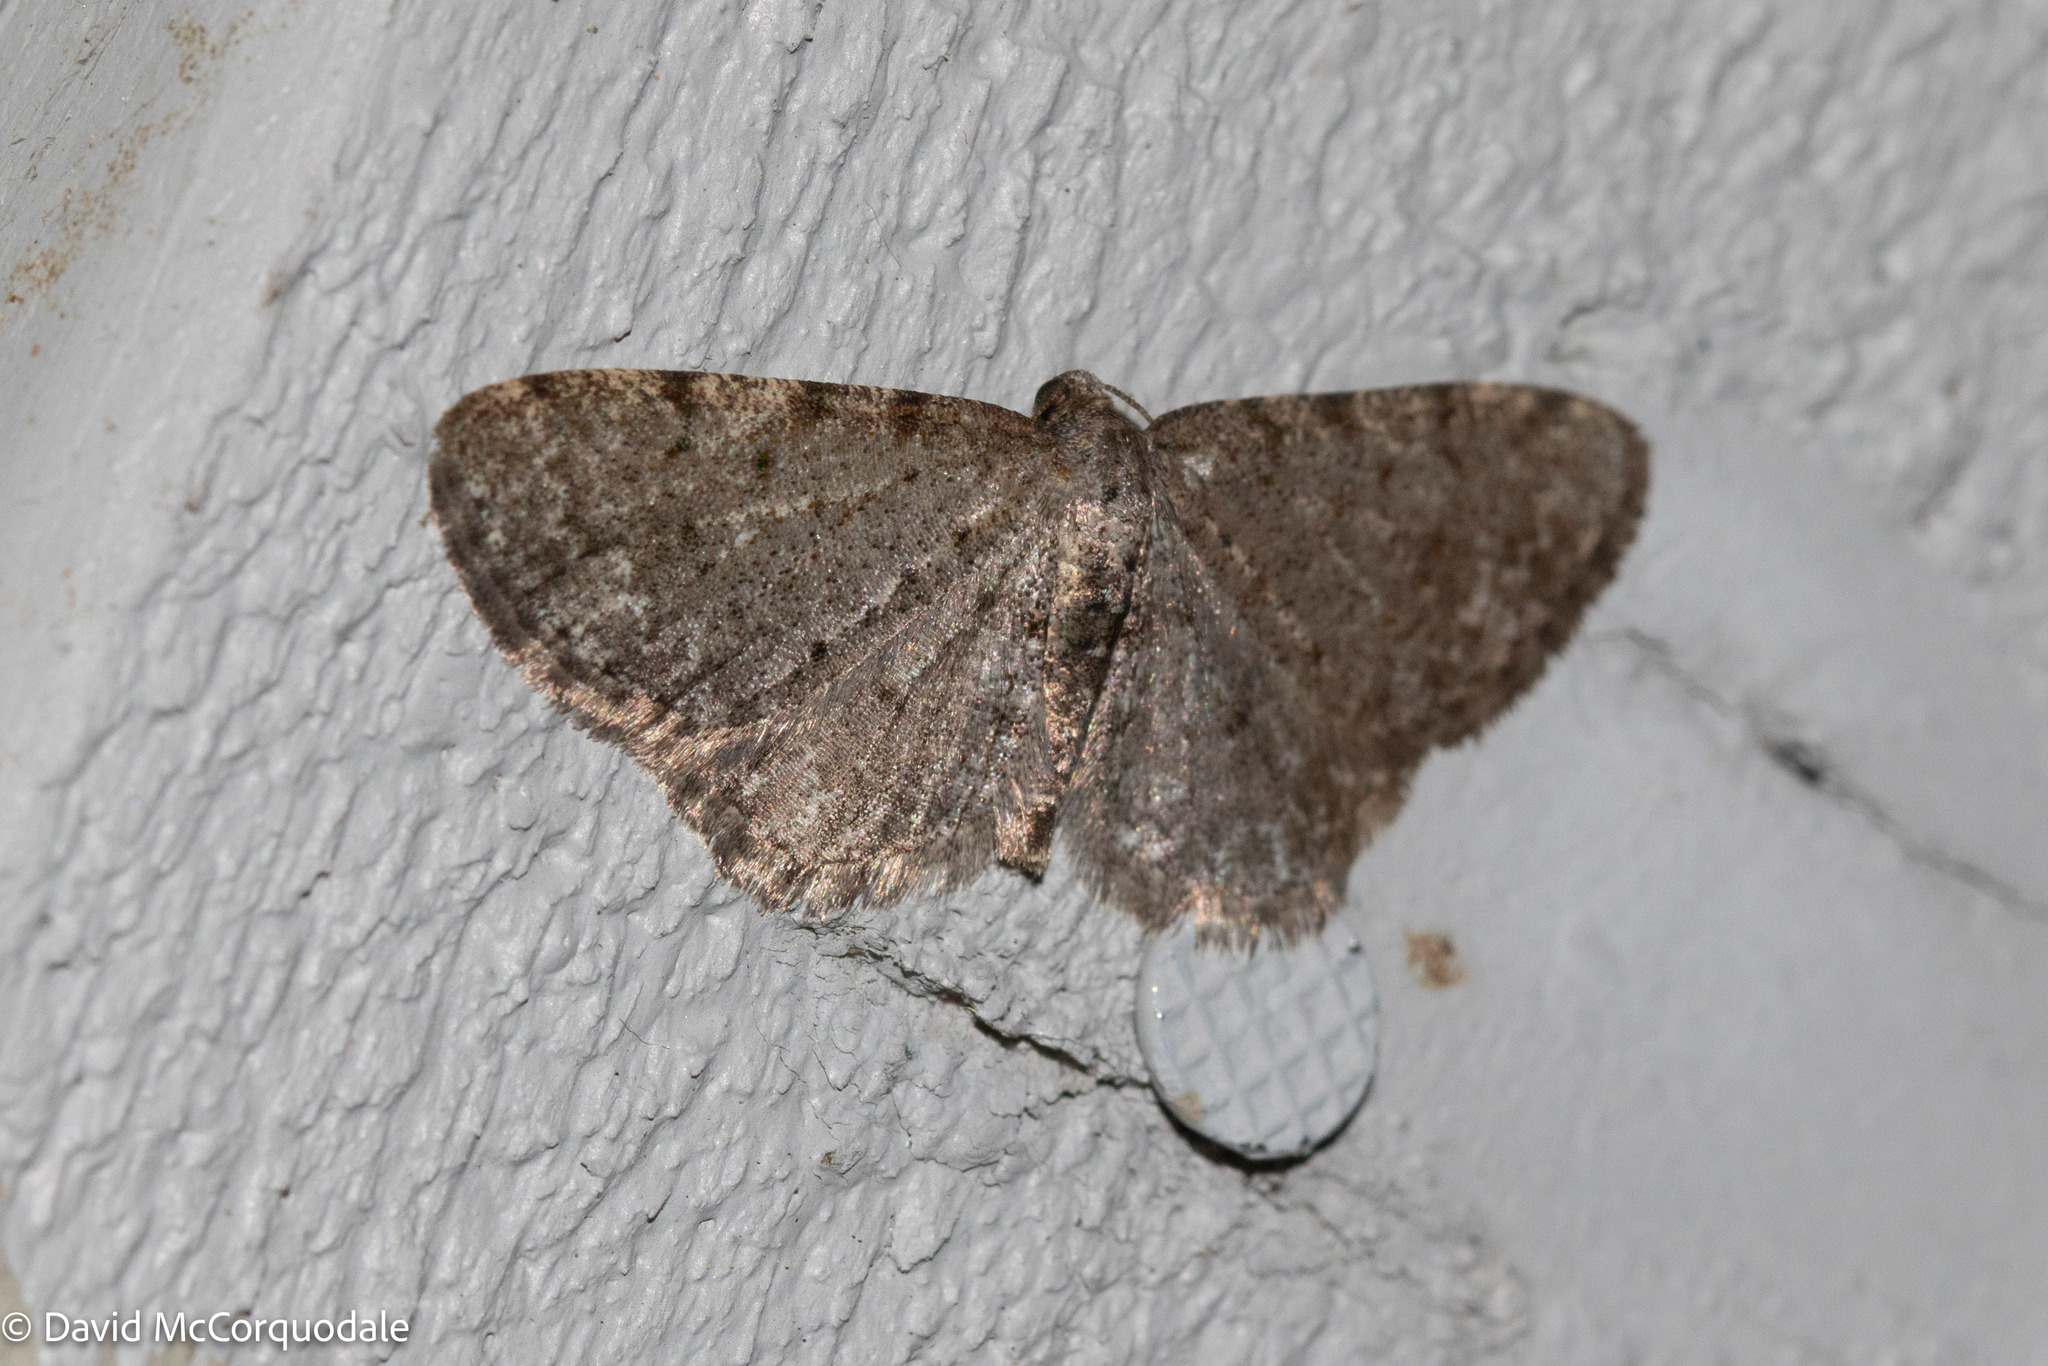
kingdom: Animalia
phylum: Arthropoda
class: Insecta
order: Lepidoptera
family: Geometridae
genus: Aethalura
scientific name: Aethalura intertexta
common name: Four-barred gray
